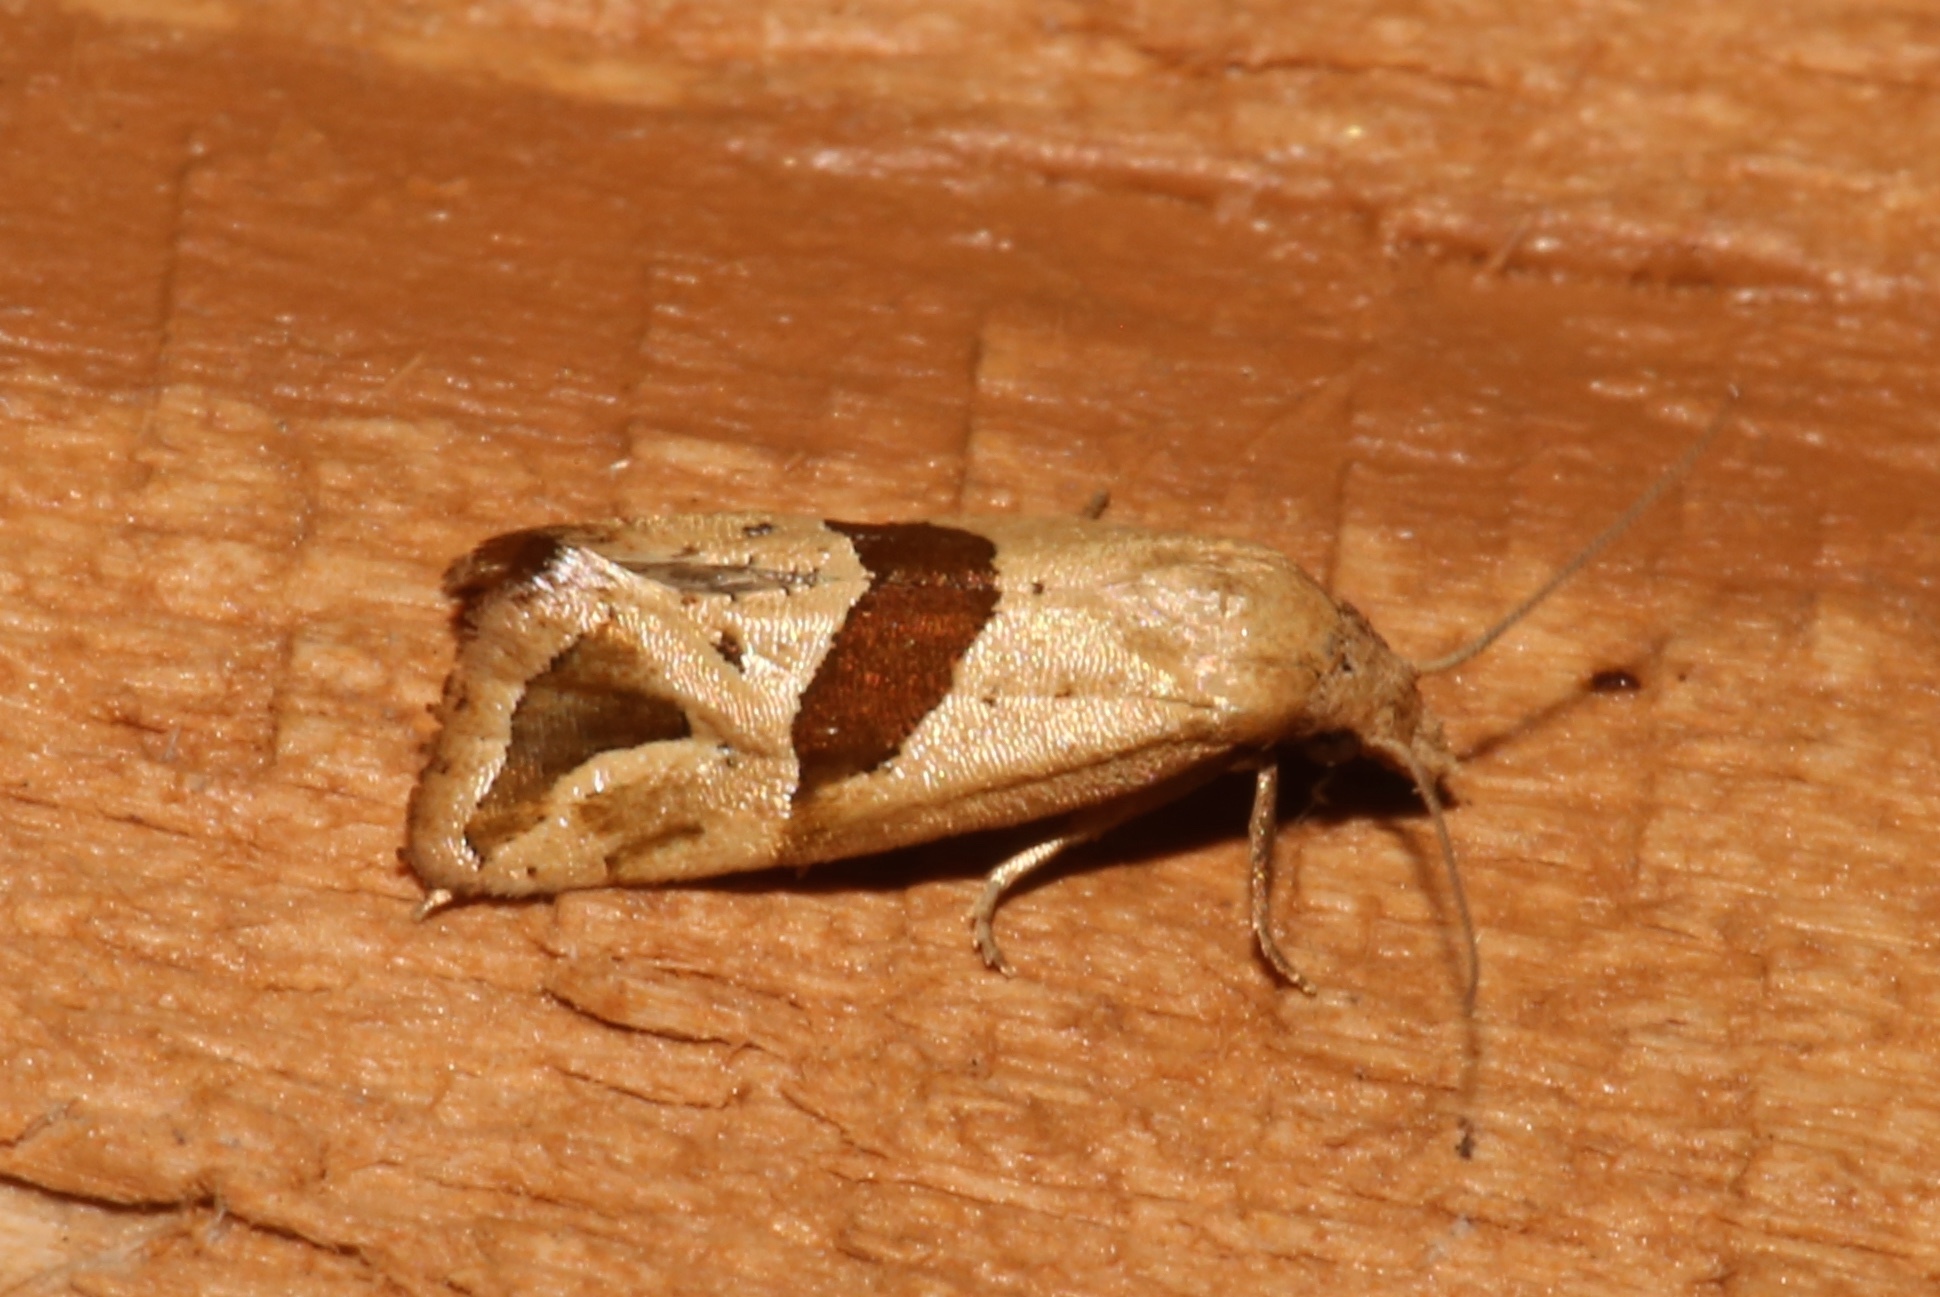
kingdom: Animalia
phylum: Arthropoda
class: Insecta
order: Lepidoptera
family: Tortricidae
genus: Eugnosta
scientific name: Eugnosta sartana
